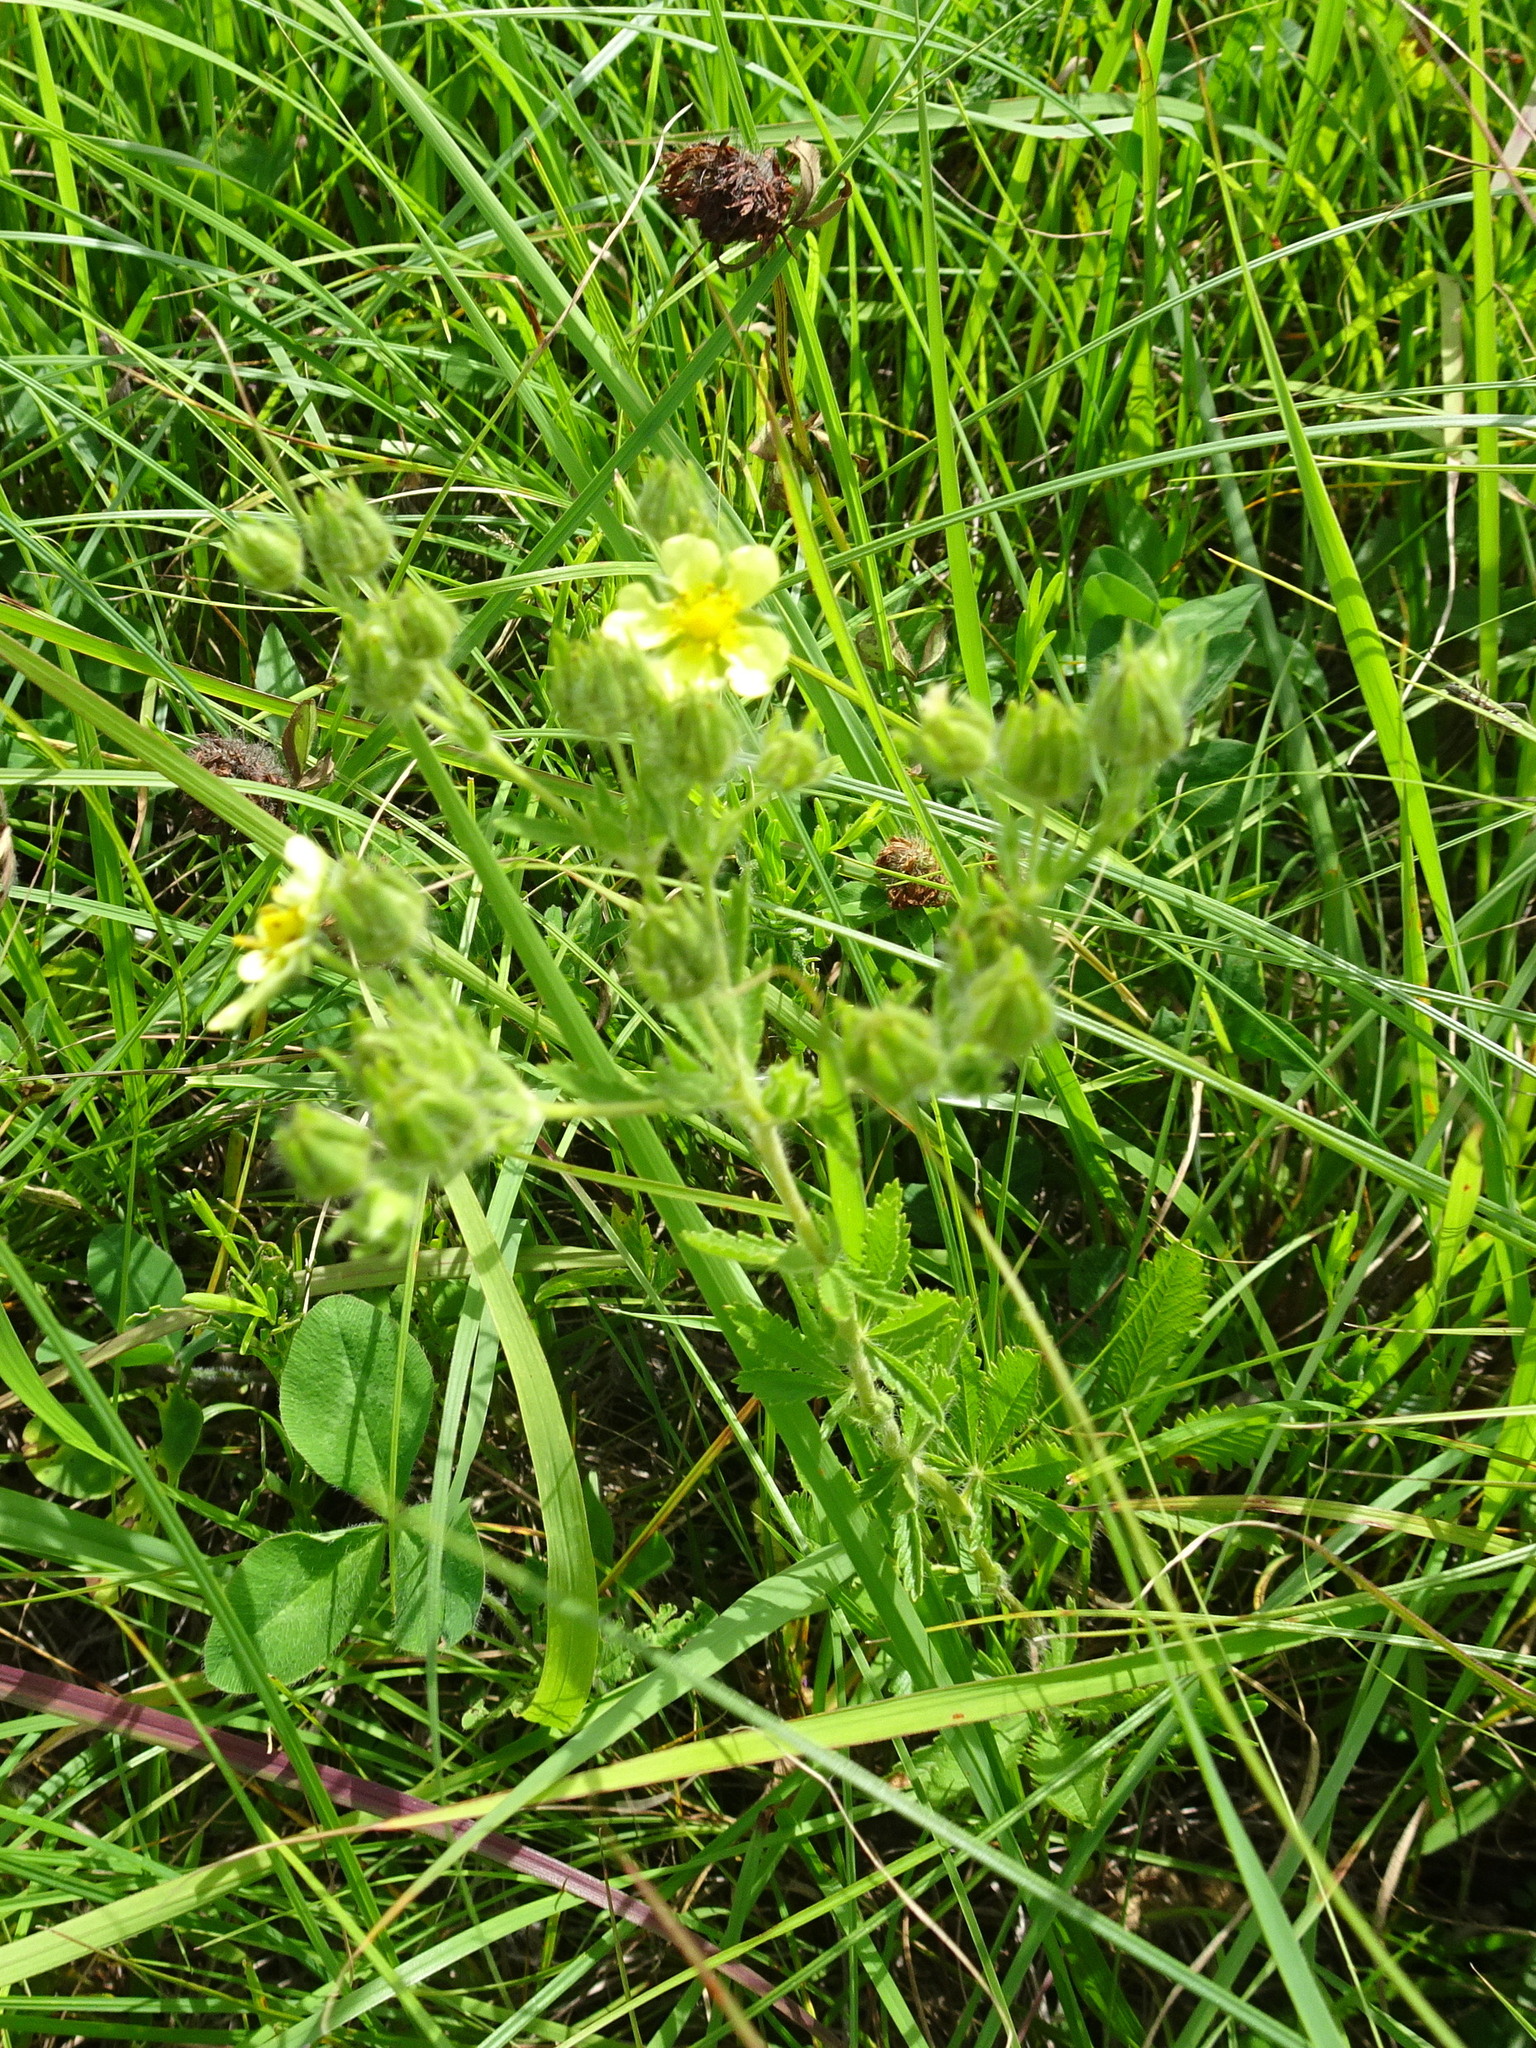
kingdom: Plantae
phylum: Tracheophyta
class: Magnoliopsida
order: Rosales
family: Rosaceae
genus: Potentilla
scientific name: Potentilla recta
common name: Sulphur cinquefoil
